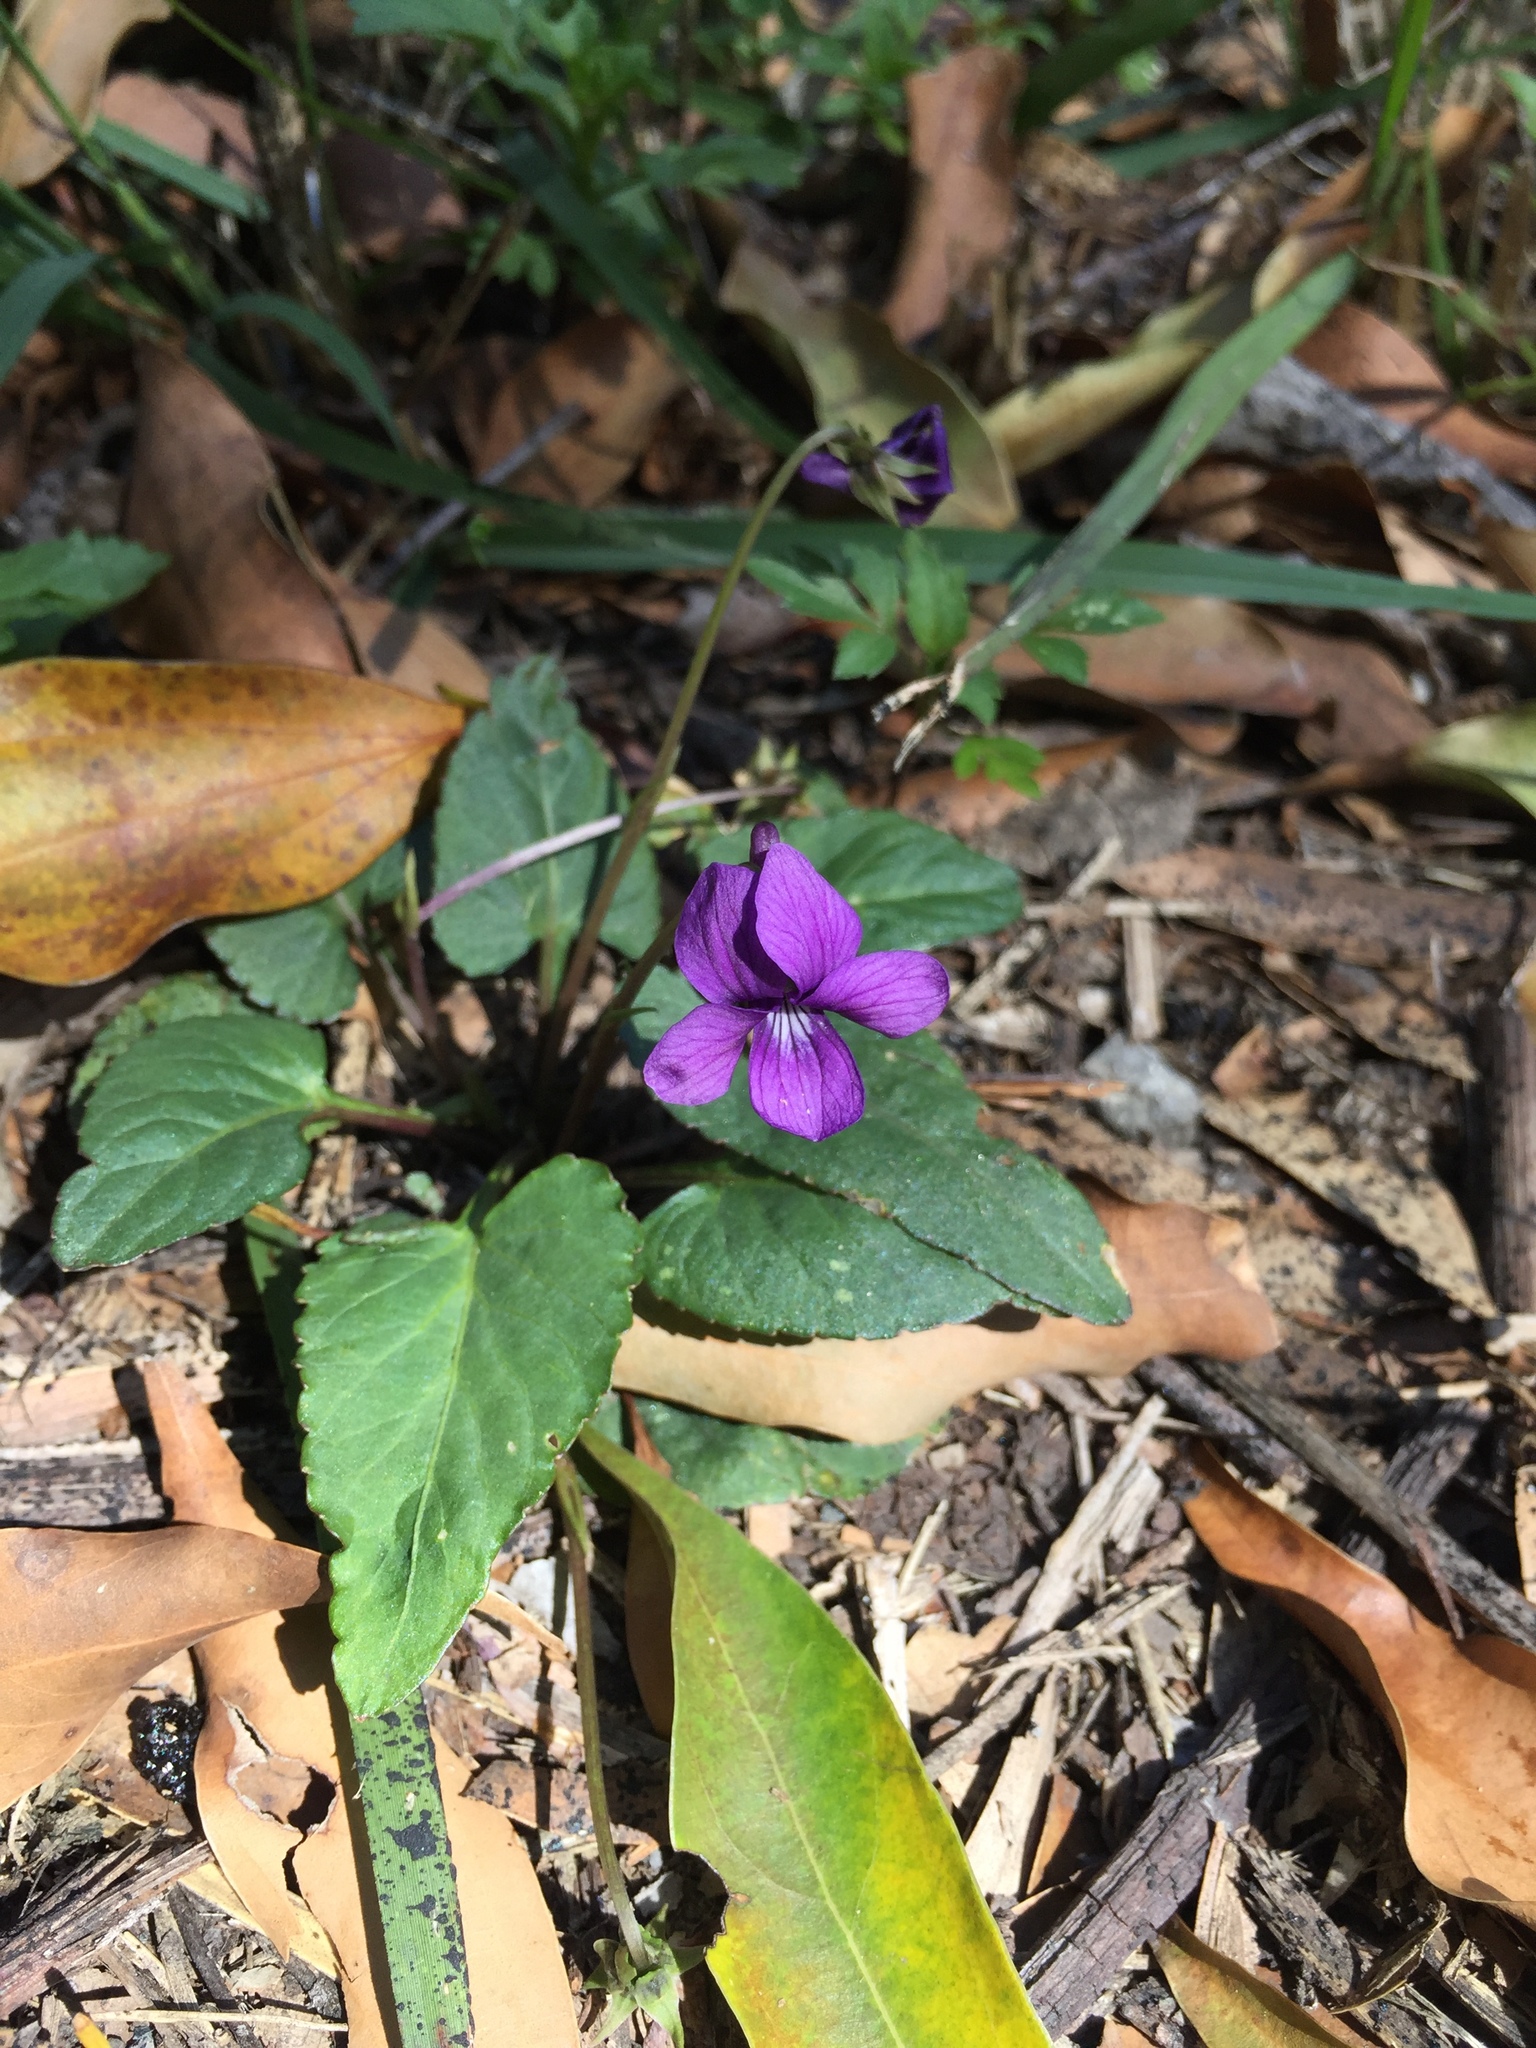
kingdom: Plantae
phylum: Tracheophyta
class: Magnoliopsida
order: Malpighiales
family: Violaceae
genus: Viola
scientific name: Viola inconspicua
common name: Long sepal violet
